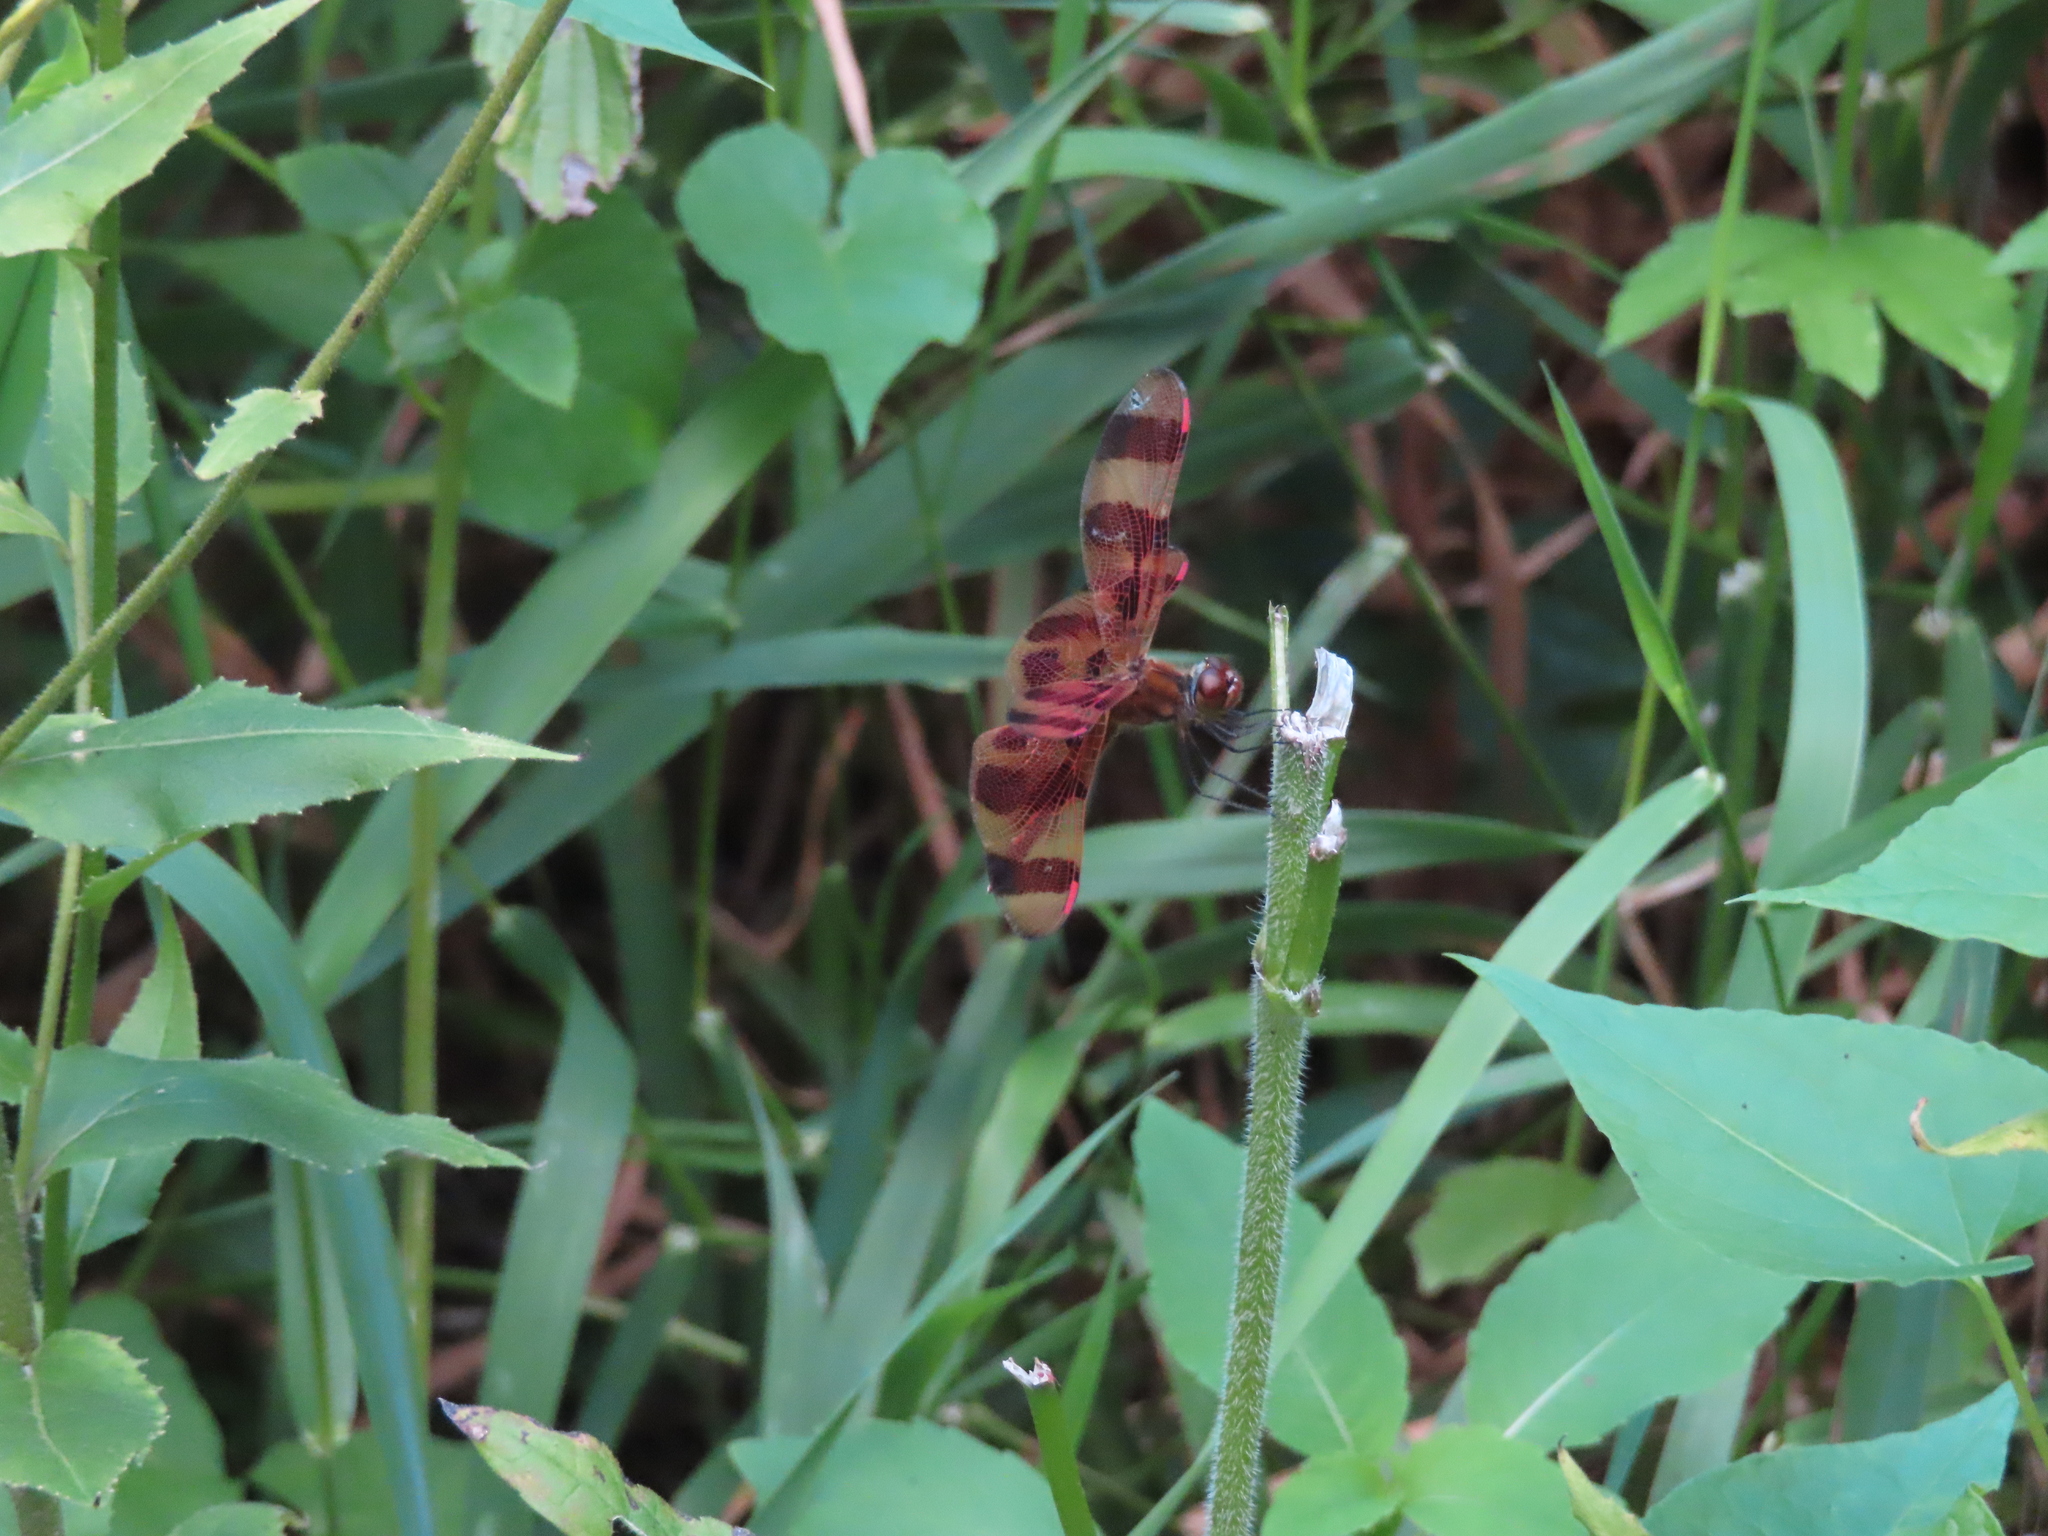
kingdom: Animalia
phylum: Arthropoda
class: Insecta
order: Odonata
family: Libellulidae
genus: Celithemis
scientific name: Celithemis eponina
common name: Halloween pennant
